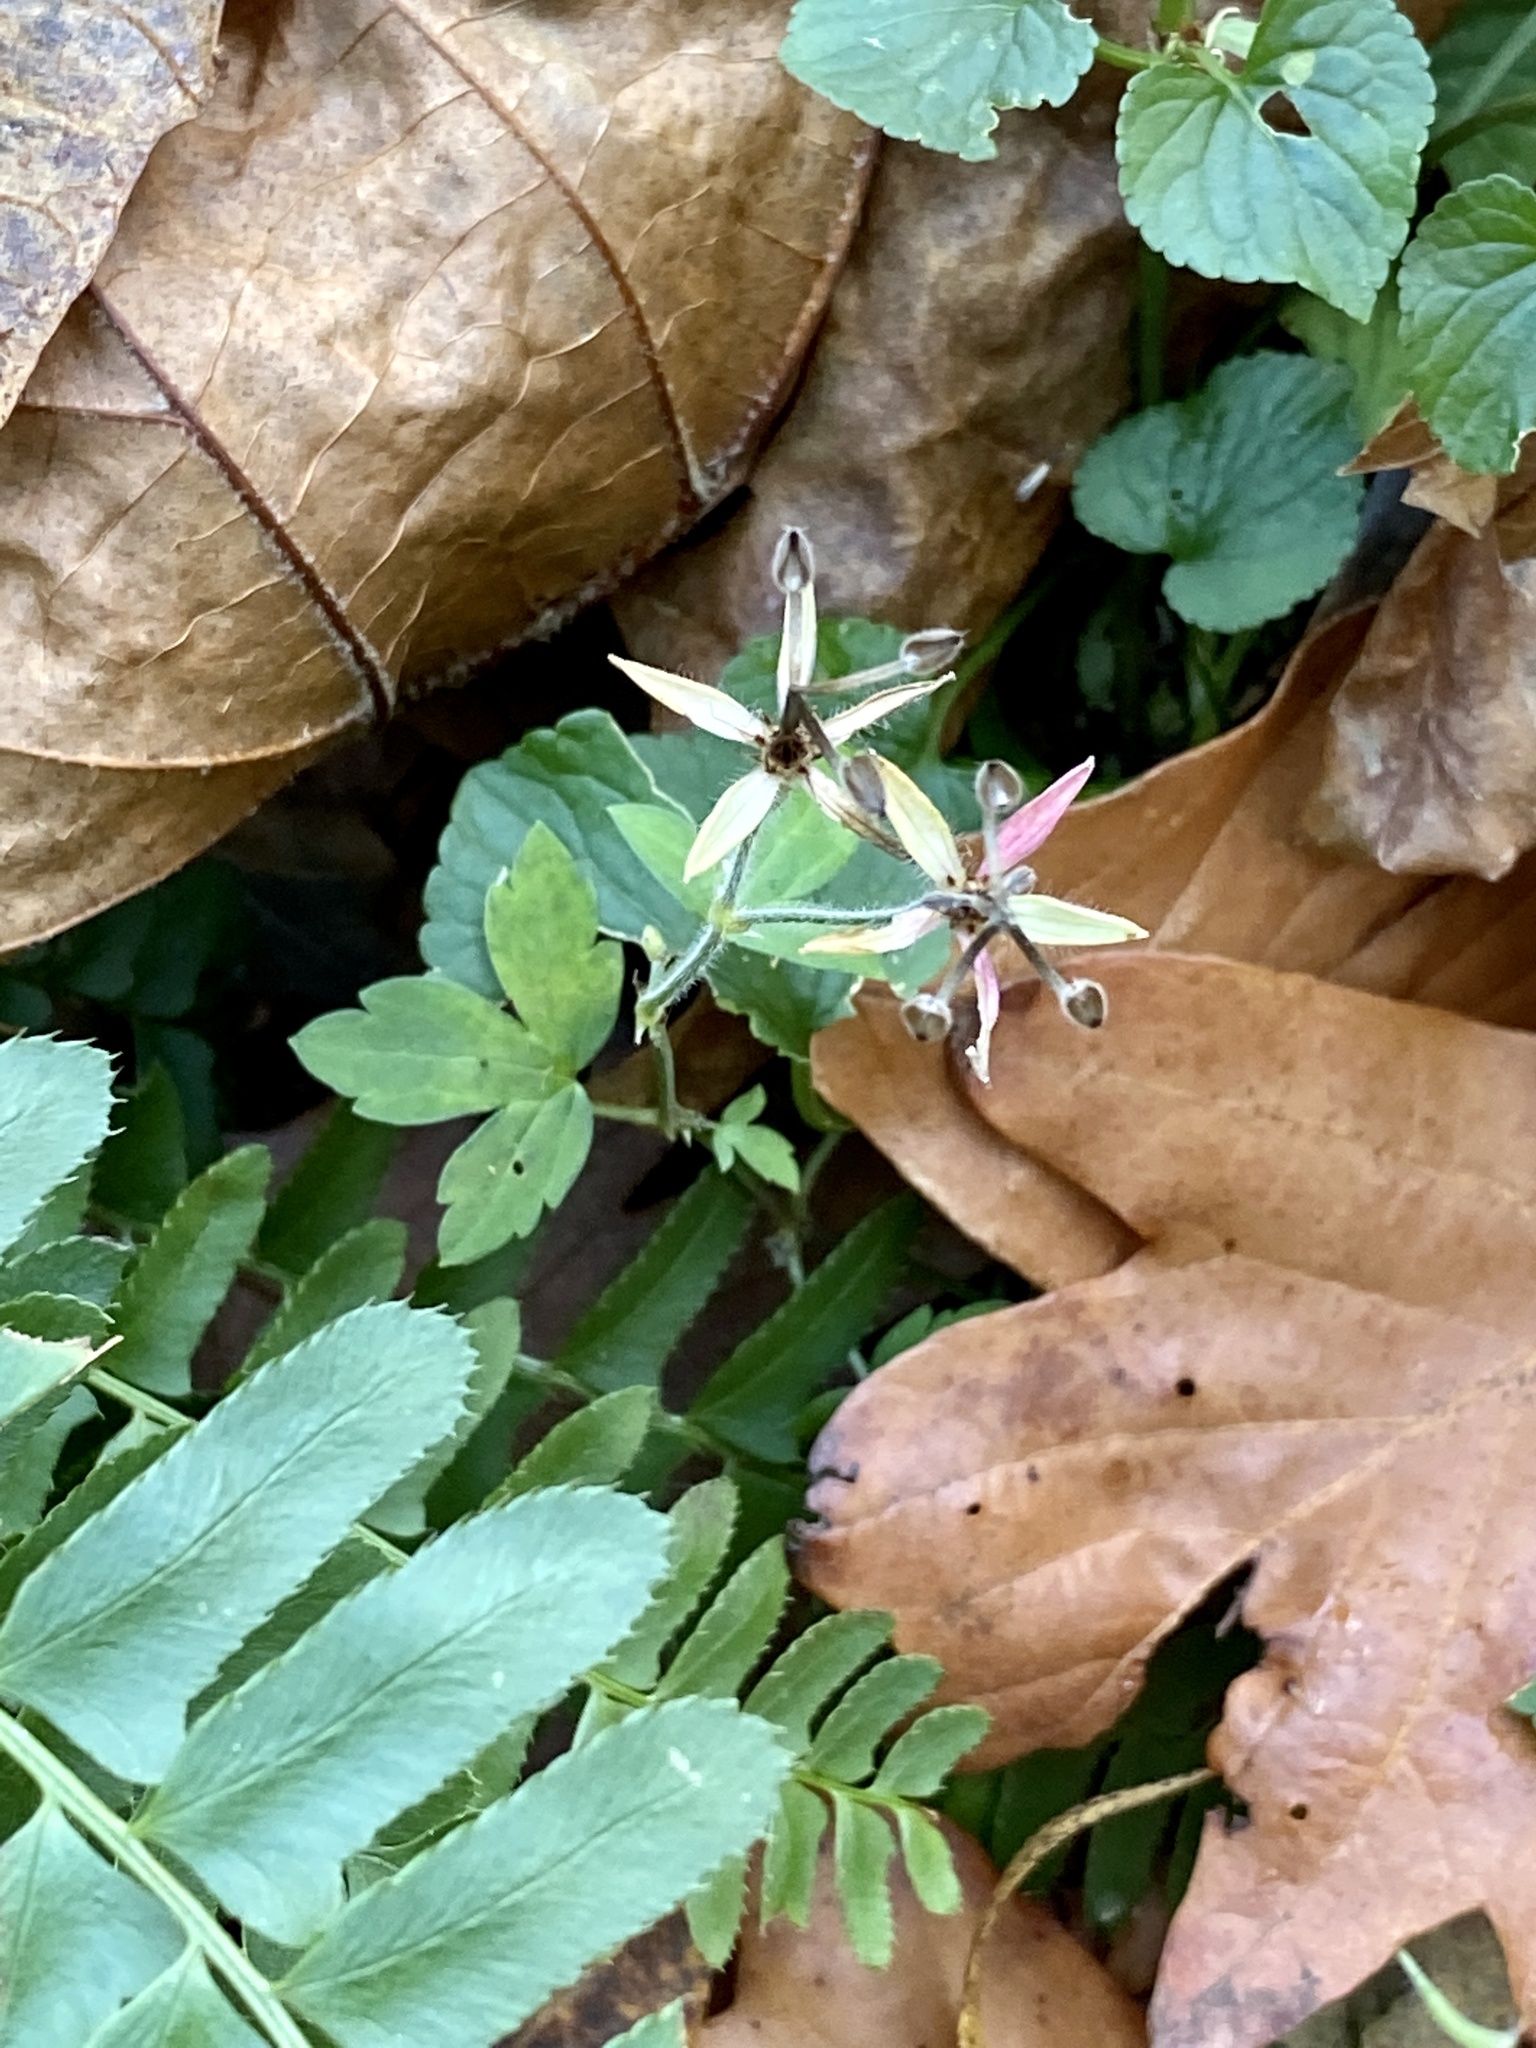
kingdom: Plantae
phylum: Tracheophyta
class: Magnoliopsida
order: Geraniales
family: Geraniaceae
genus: Geranium
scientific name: Geranium thunbergii
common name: Dewdrop crane's-bill
